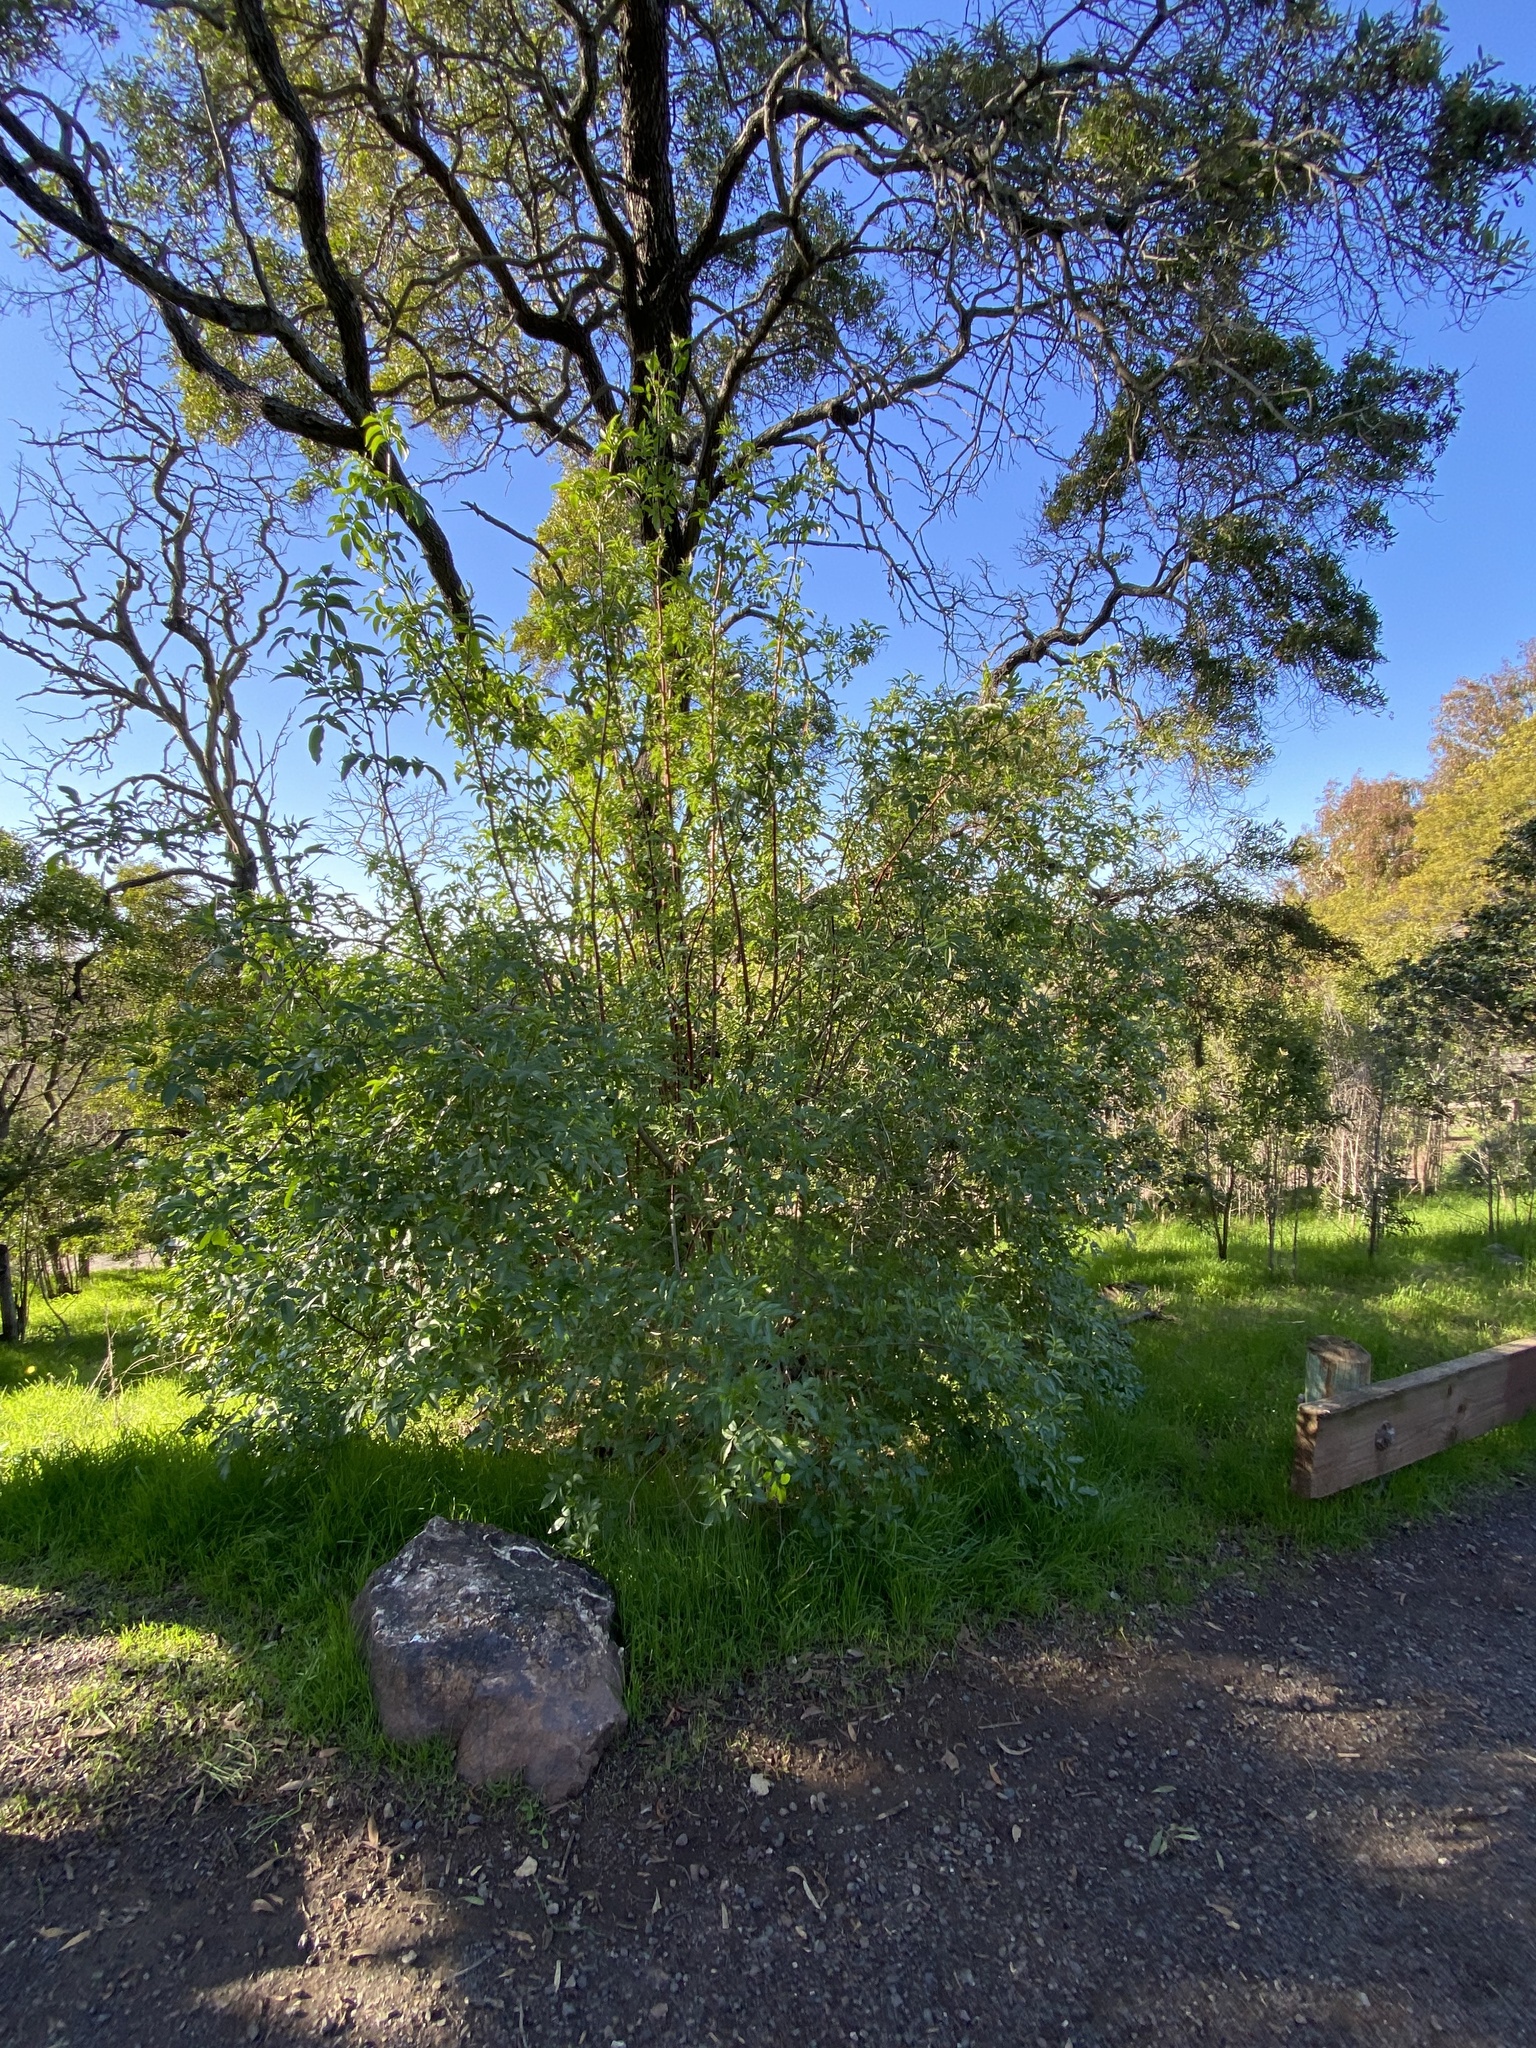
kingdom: Plantae
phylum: Tracheophyta
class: Magnoliopsida
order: Dipsacales
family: Viburnaceae
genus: Sambucus
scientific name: Sambucus cerulea
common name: Blue elder
